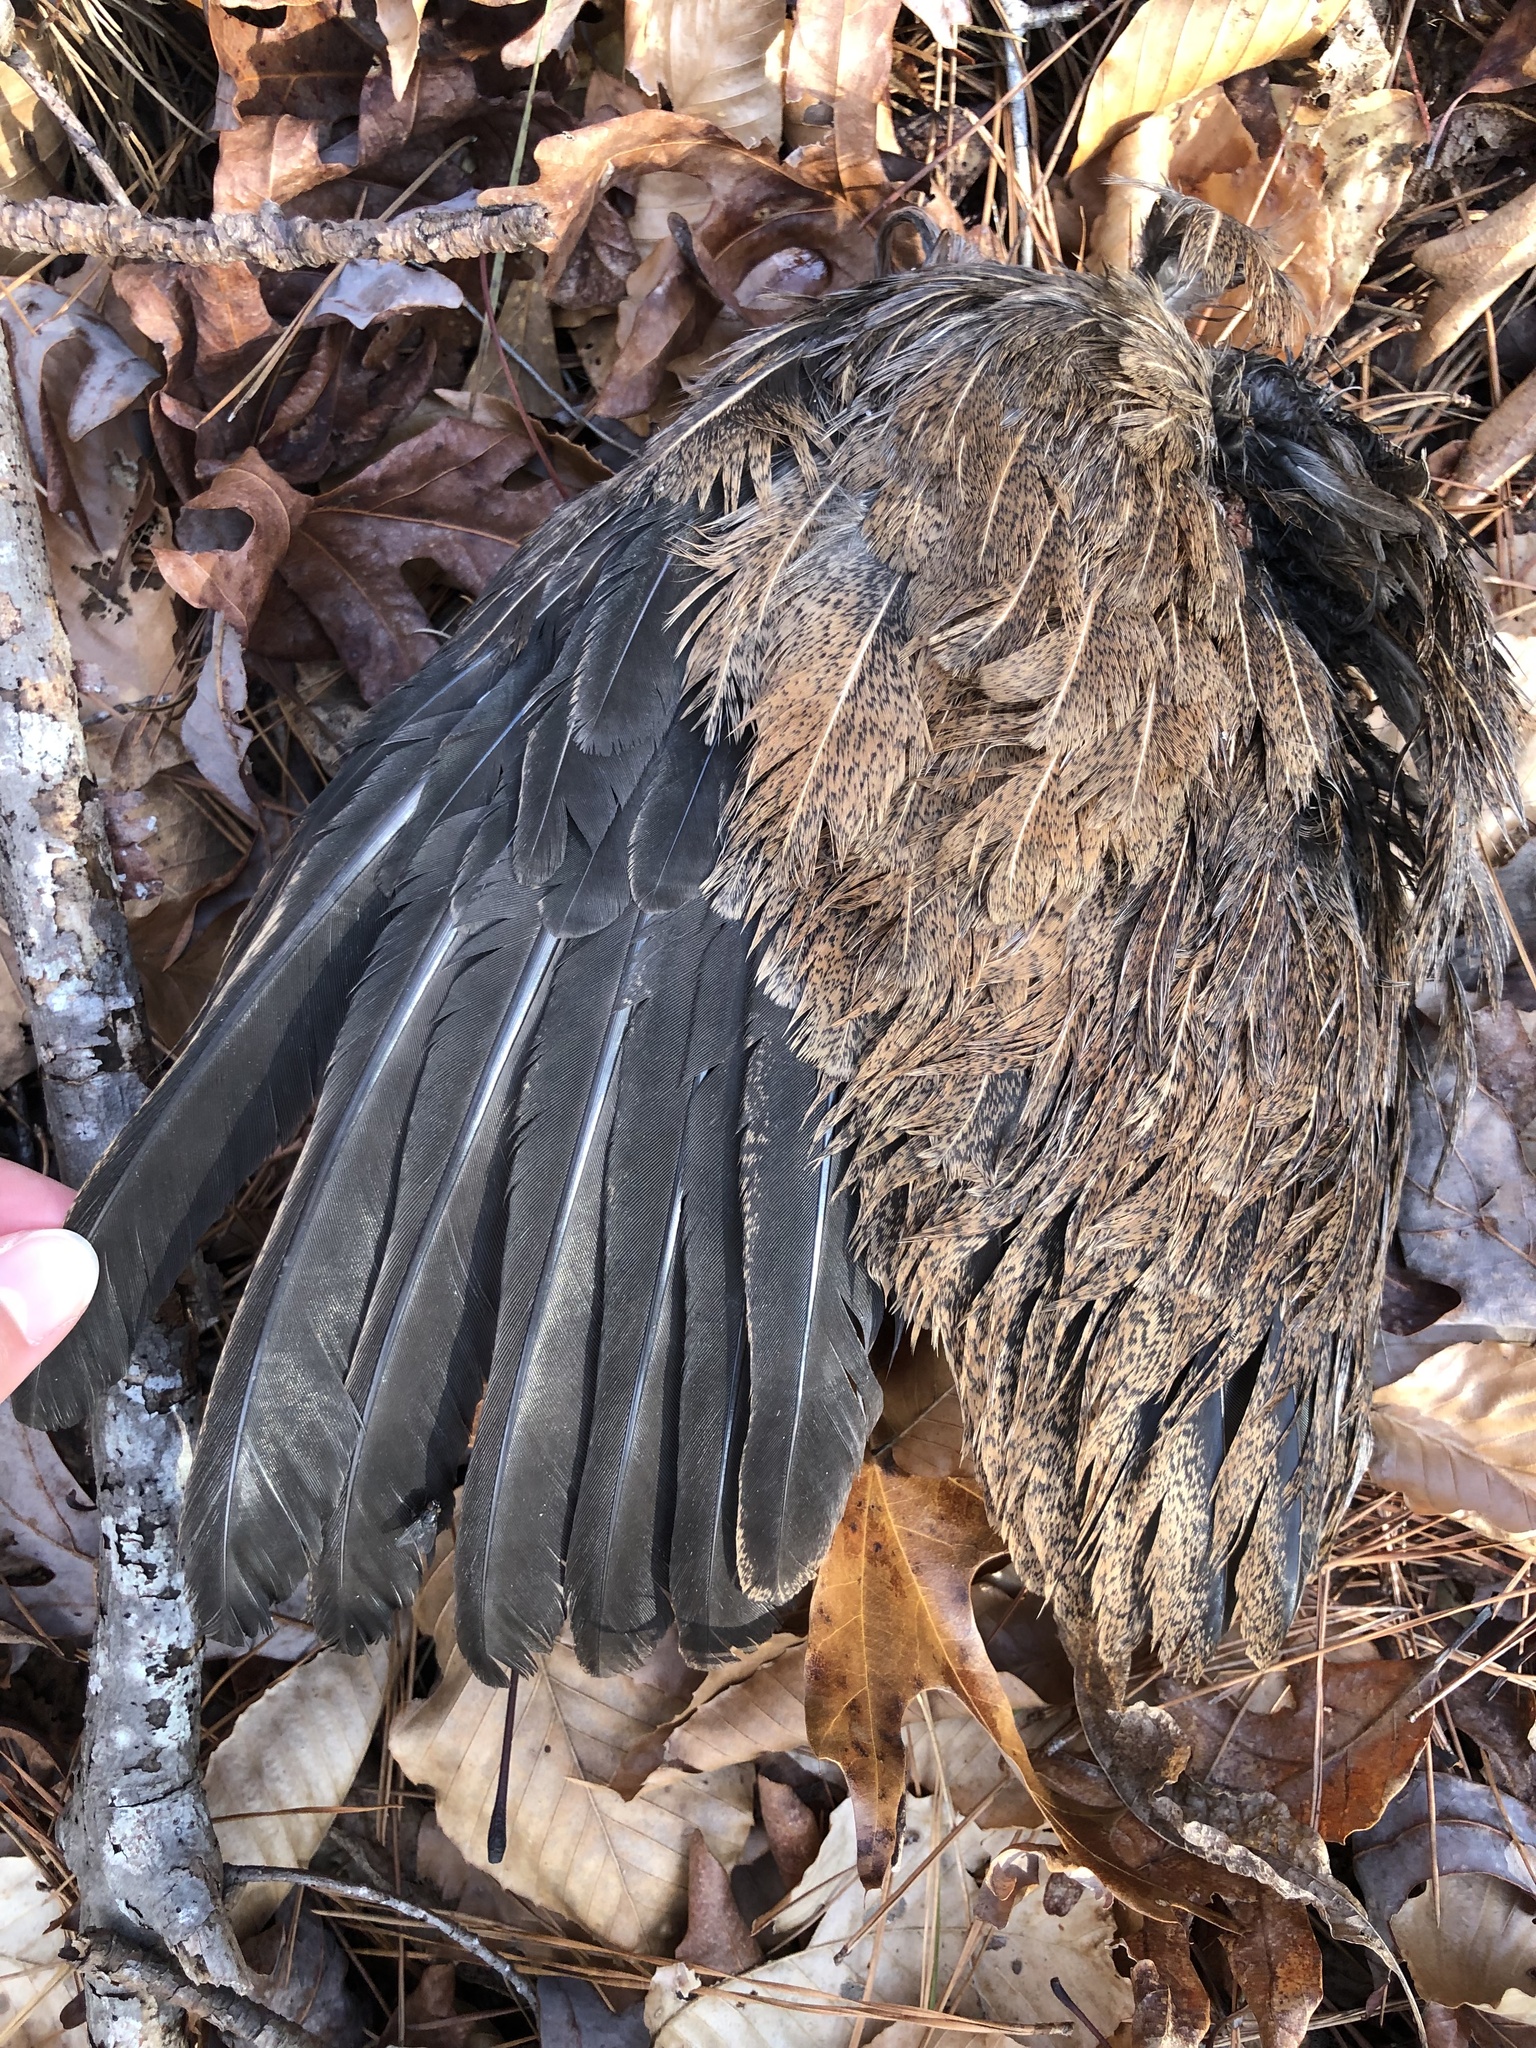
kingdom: Animalia
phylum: Chordata
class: Aves
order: Galliformes
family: Phasianidae
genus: Gallus
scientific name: Gallus gallus
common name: Red junglefowl
